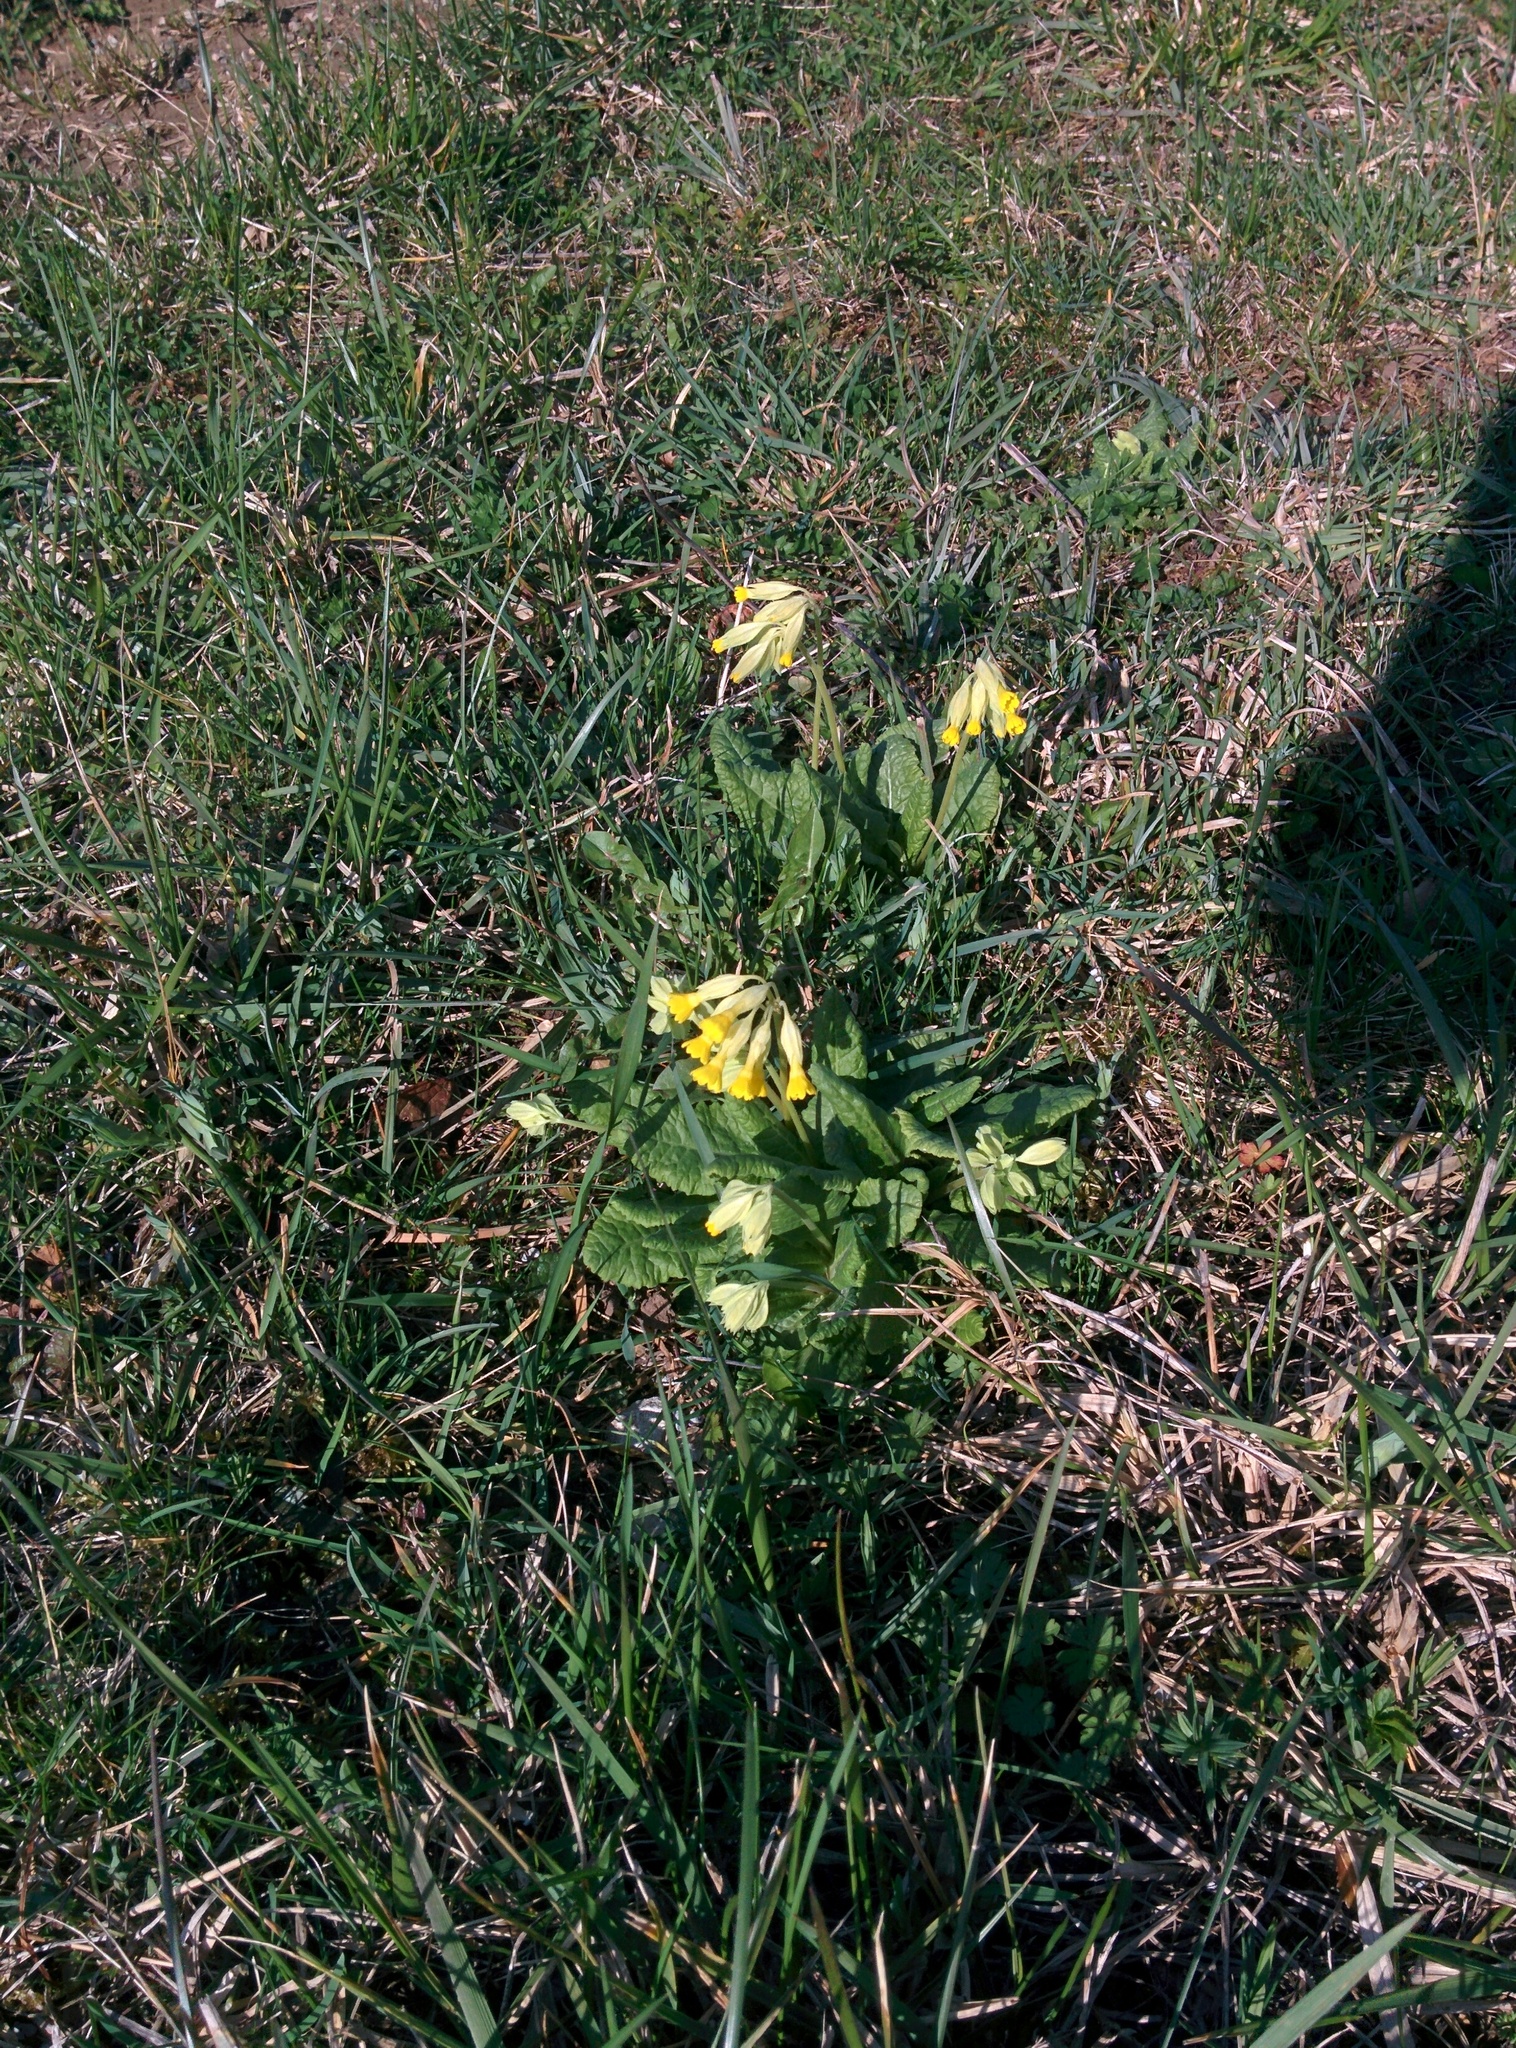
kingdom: Plantae
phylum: Tracheophyta
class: Magnoliopsida
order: Ericales
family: Primulaceae
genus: Primula
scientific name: Primula veris
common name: Cowslip
